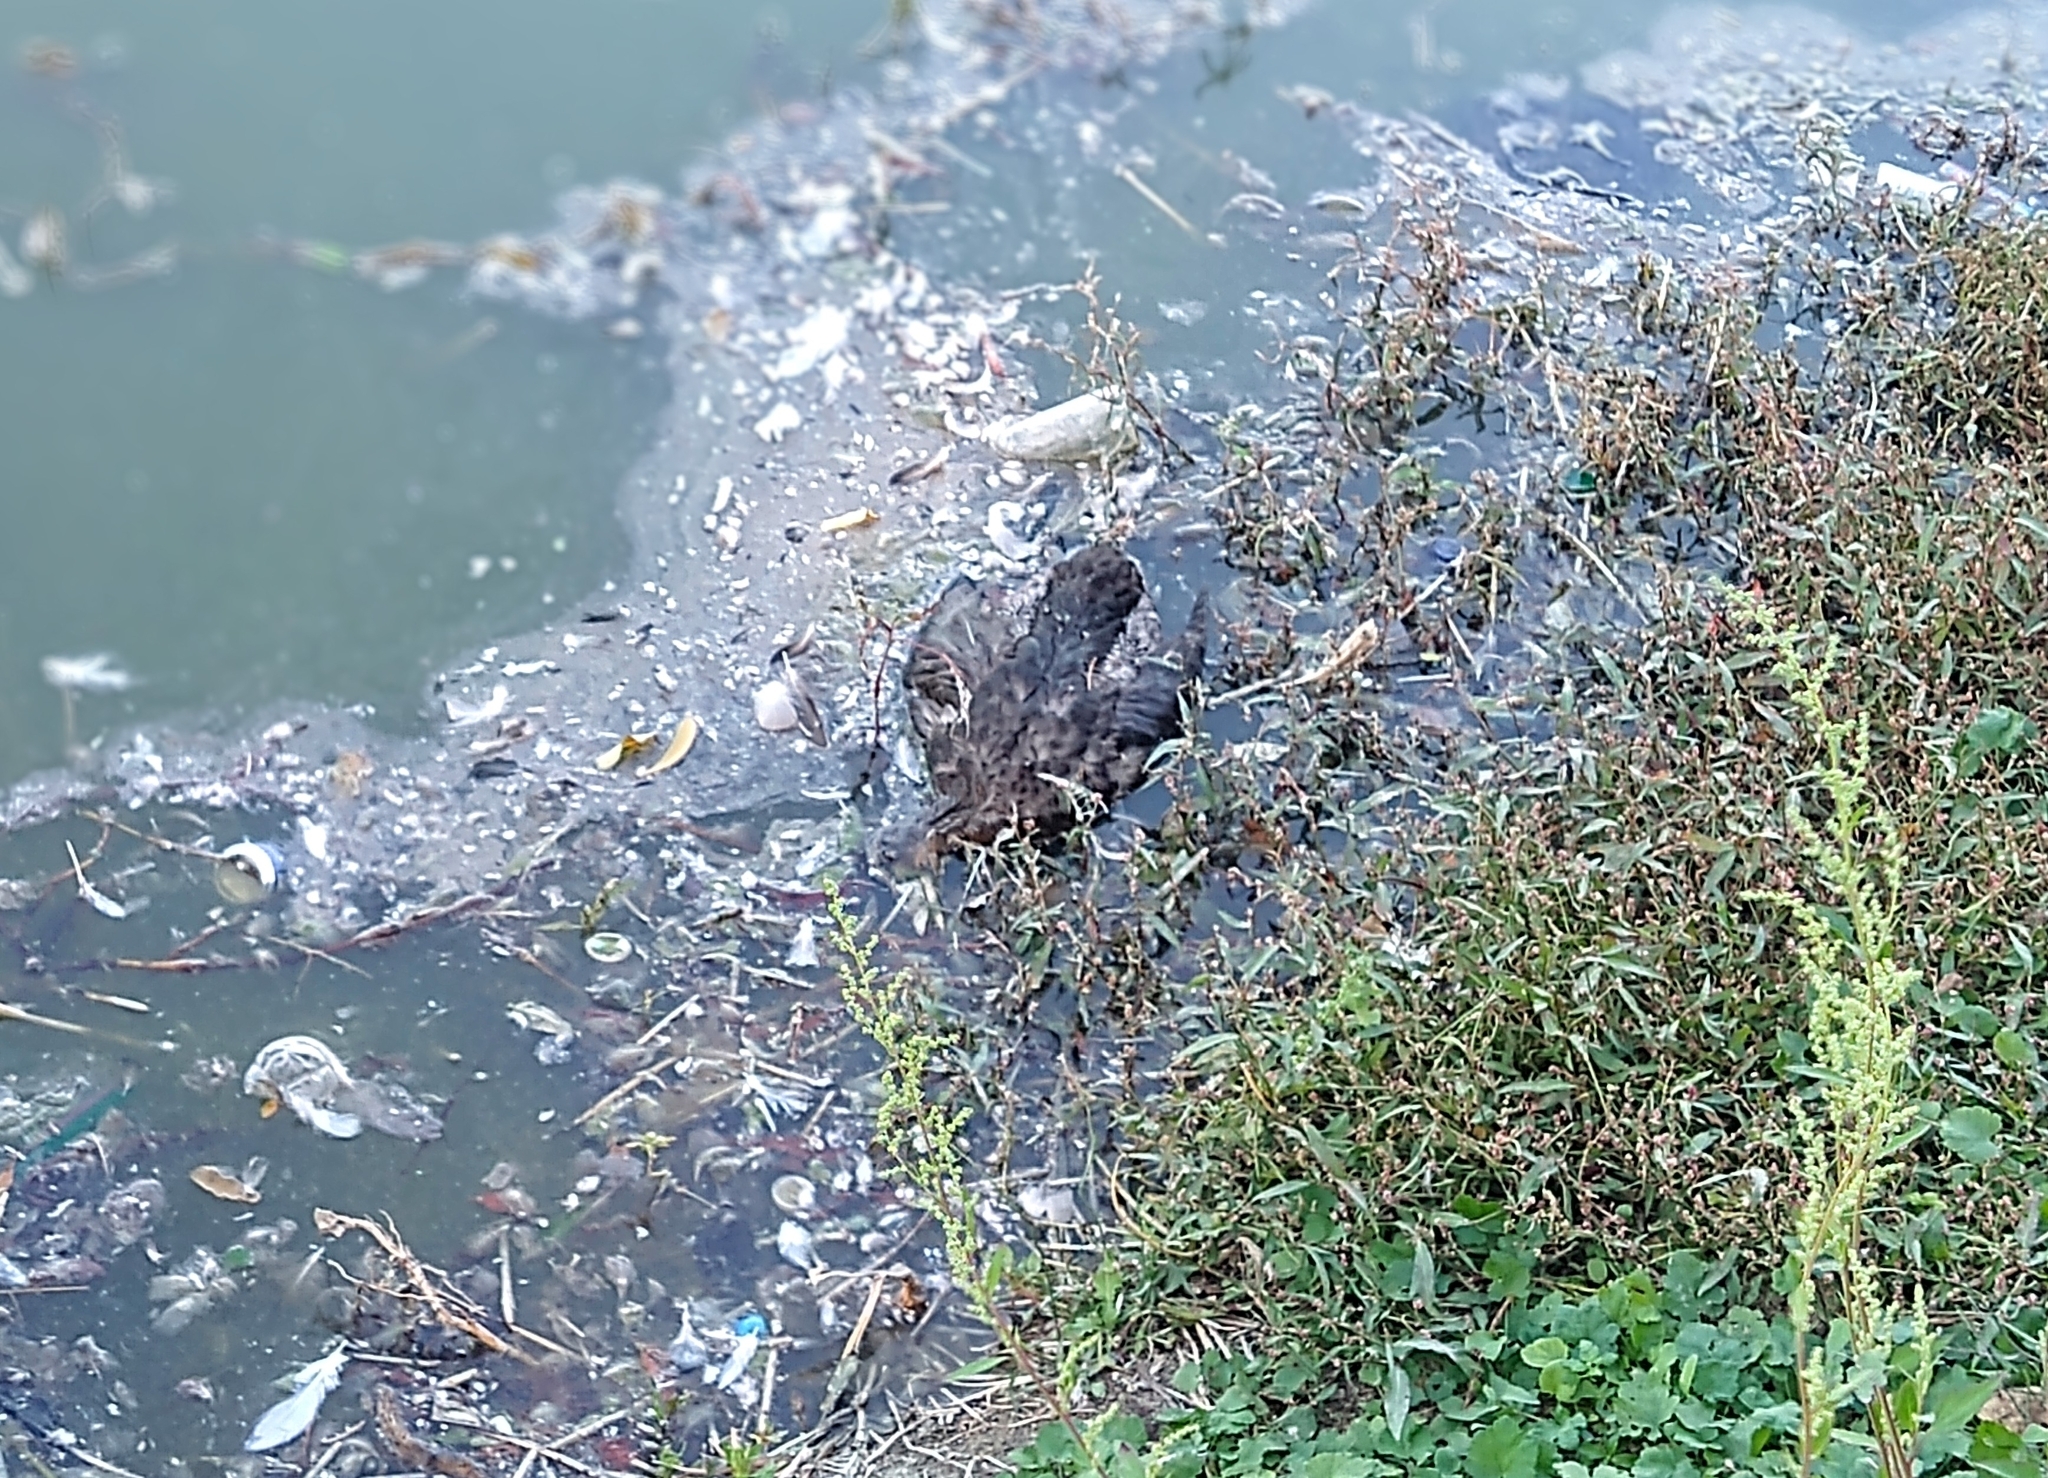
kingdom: Animalia
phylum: Chordata
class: Aves
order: Anseriformes
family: Anatidae
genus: Anas
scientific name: Anas platyrhynchos
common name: Mallard
